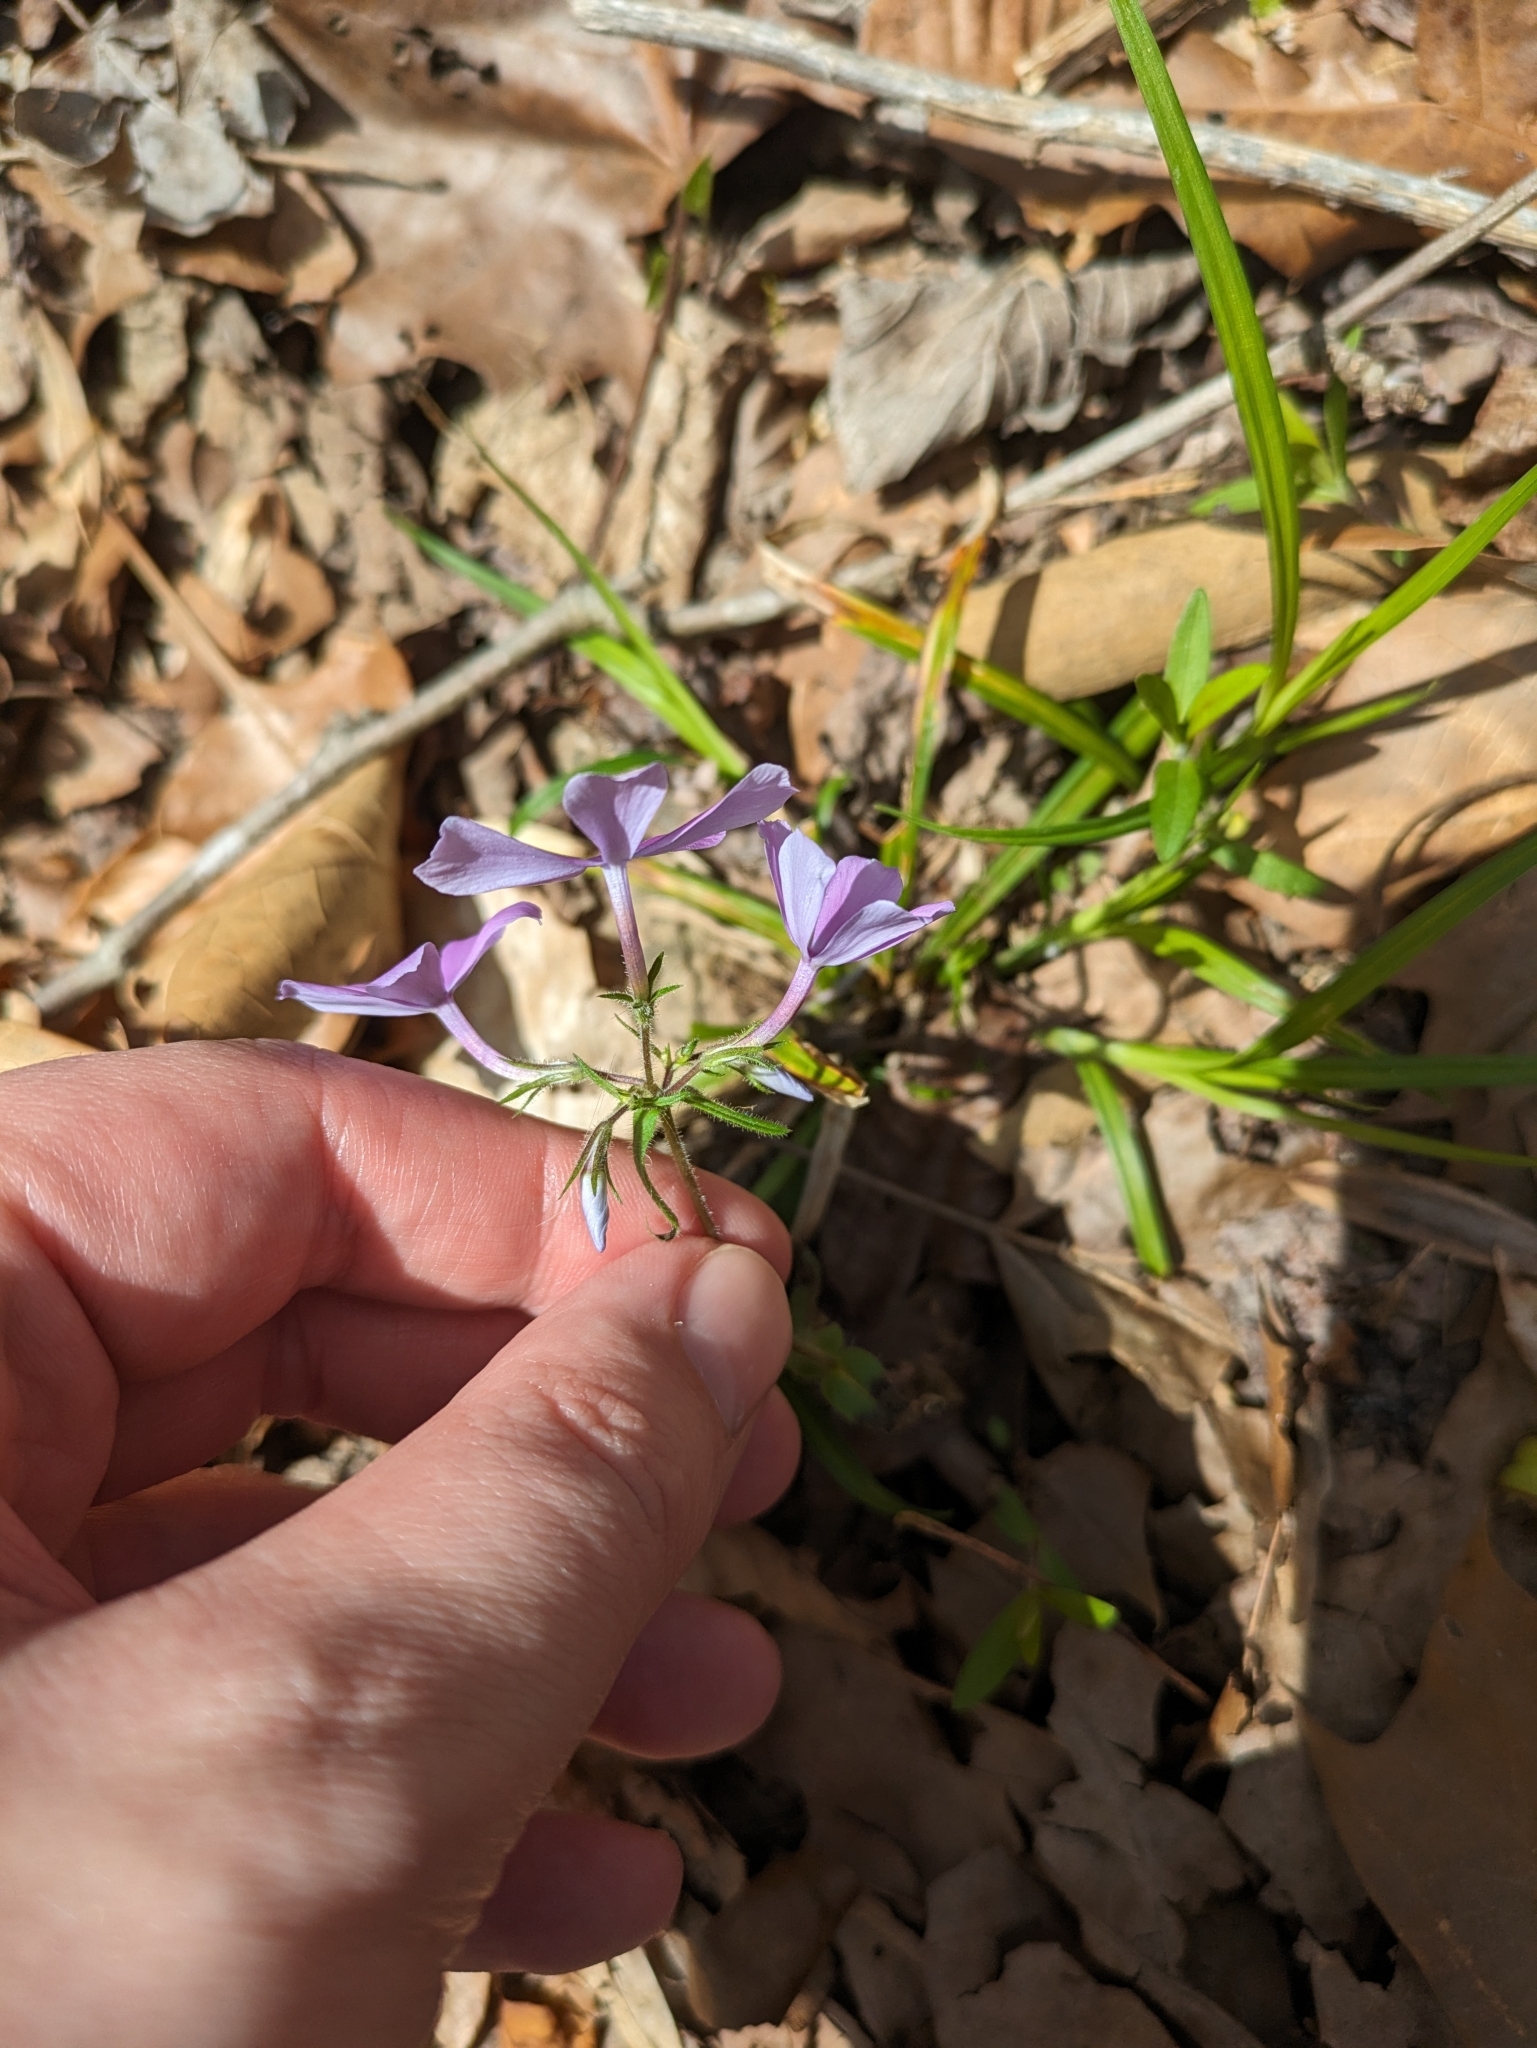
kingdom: Plantae
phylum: Tracheophyta
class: Magnoliopsida
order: Ericales
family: Polemoniaceae
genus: Phlox
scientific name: Phlox divaricata
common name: Blue phlox
